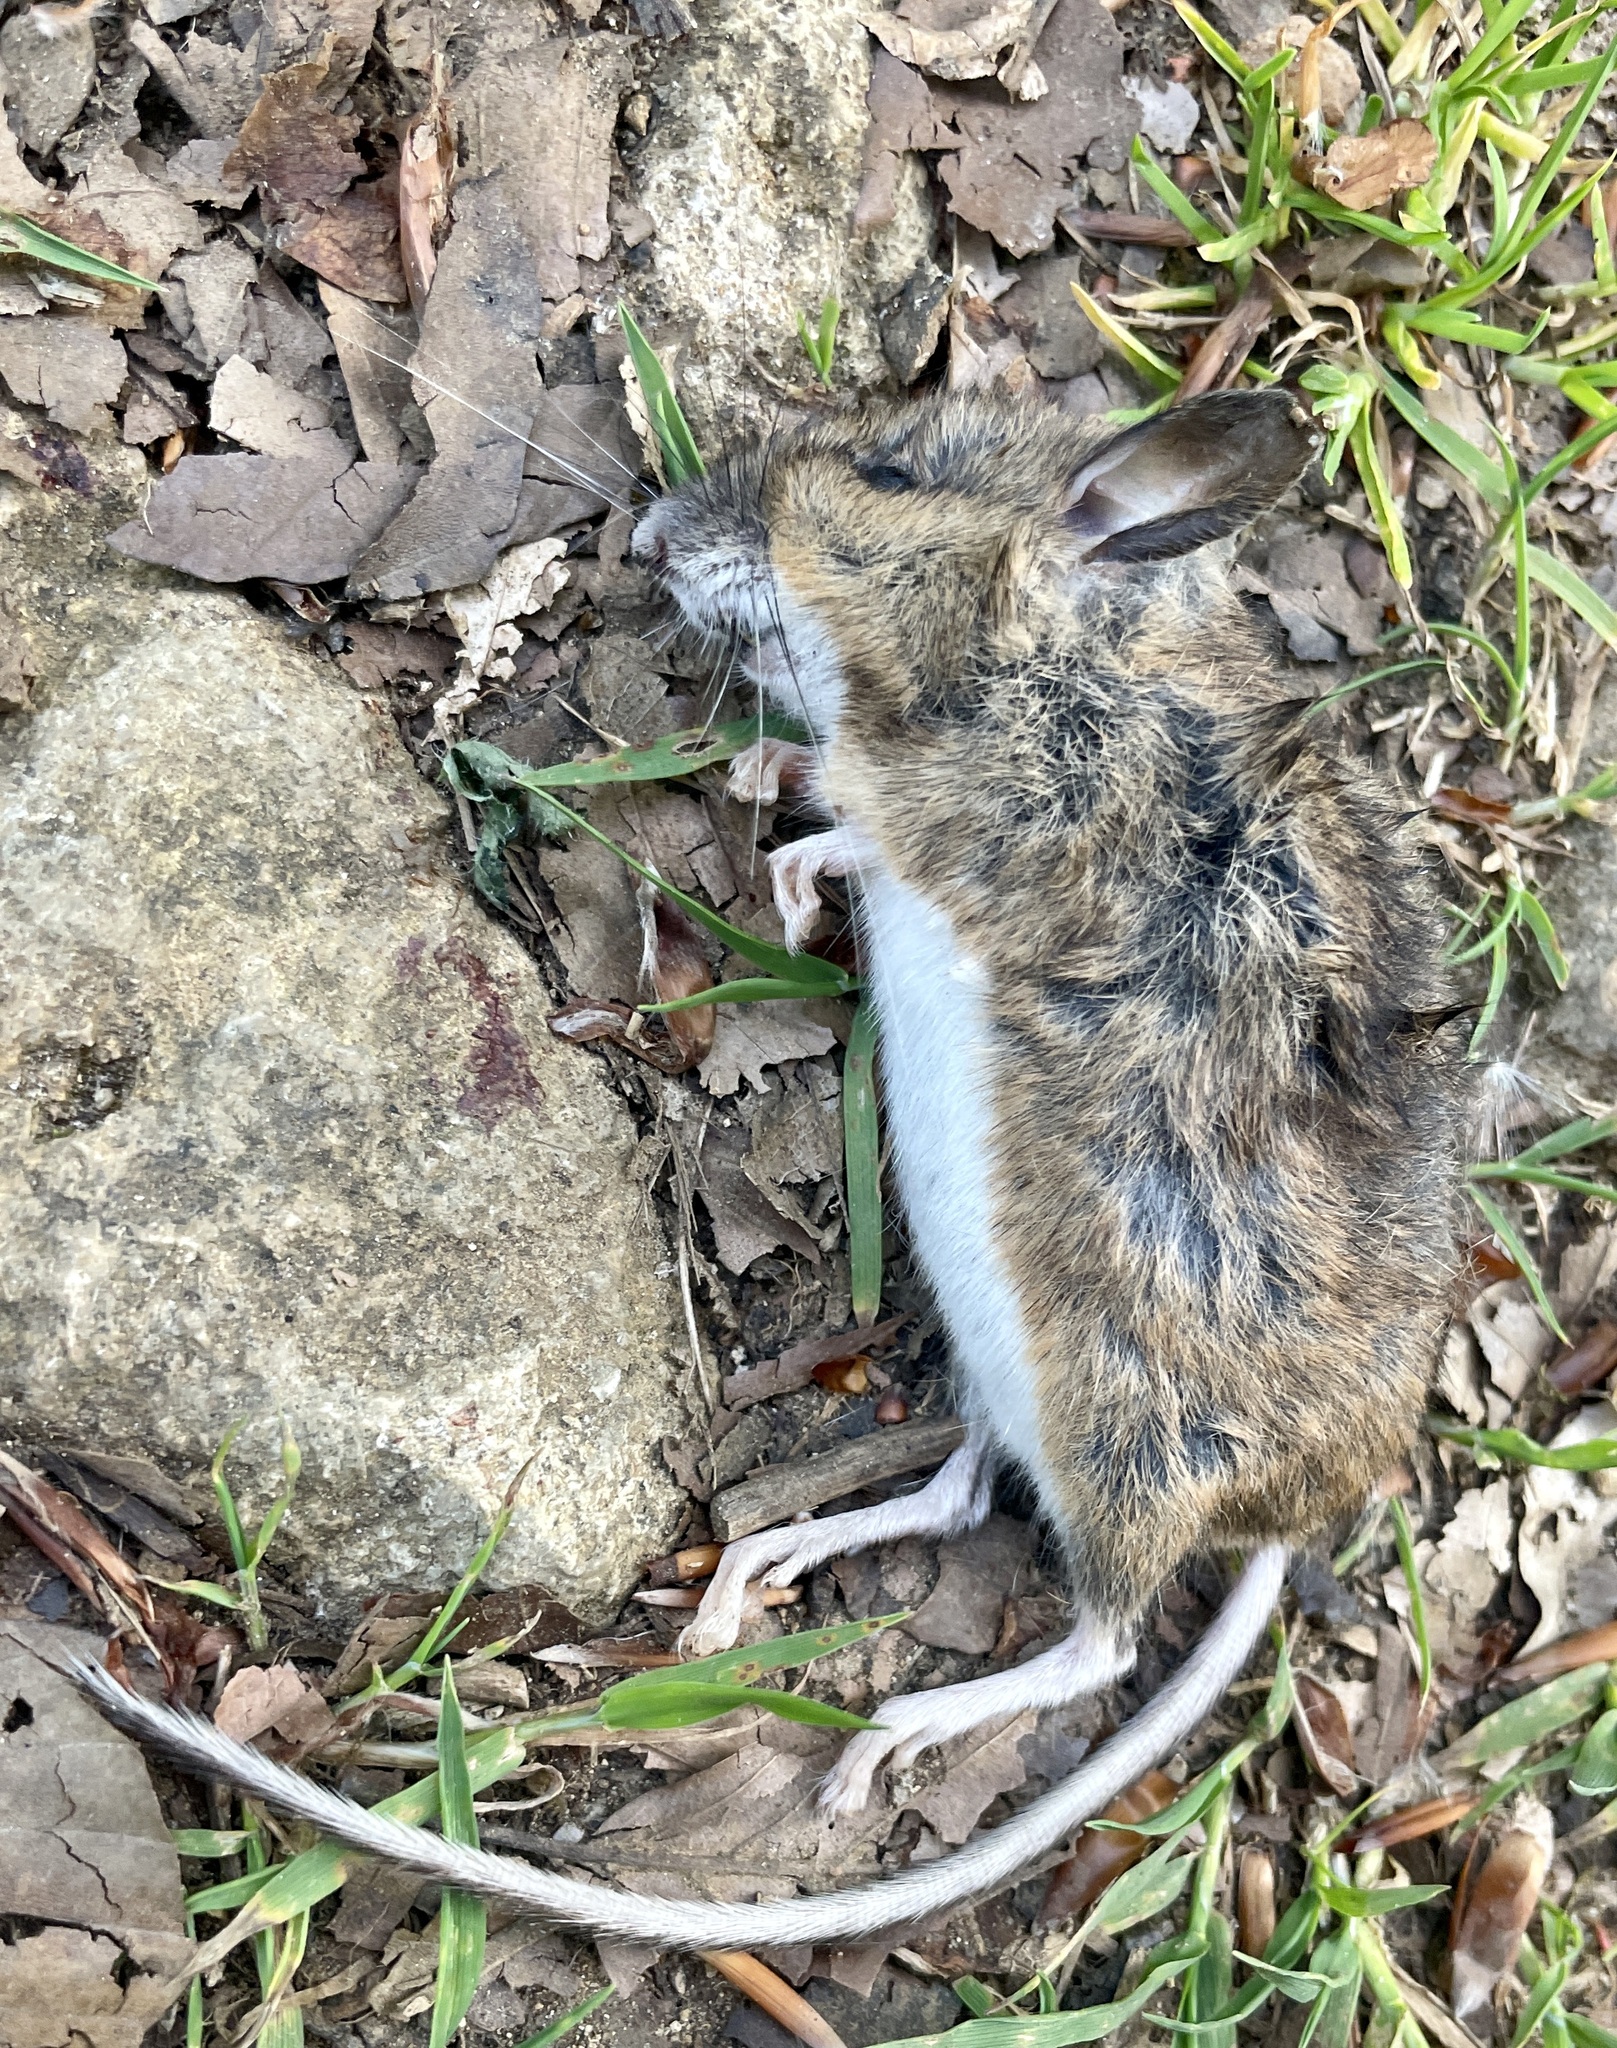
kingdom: Animalia
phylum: Chordata
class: Mammalia
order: Rodentia
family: Muridae
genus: Apodemus
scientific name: Apodemus sylvaticus
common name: Wood mouse
